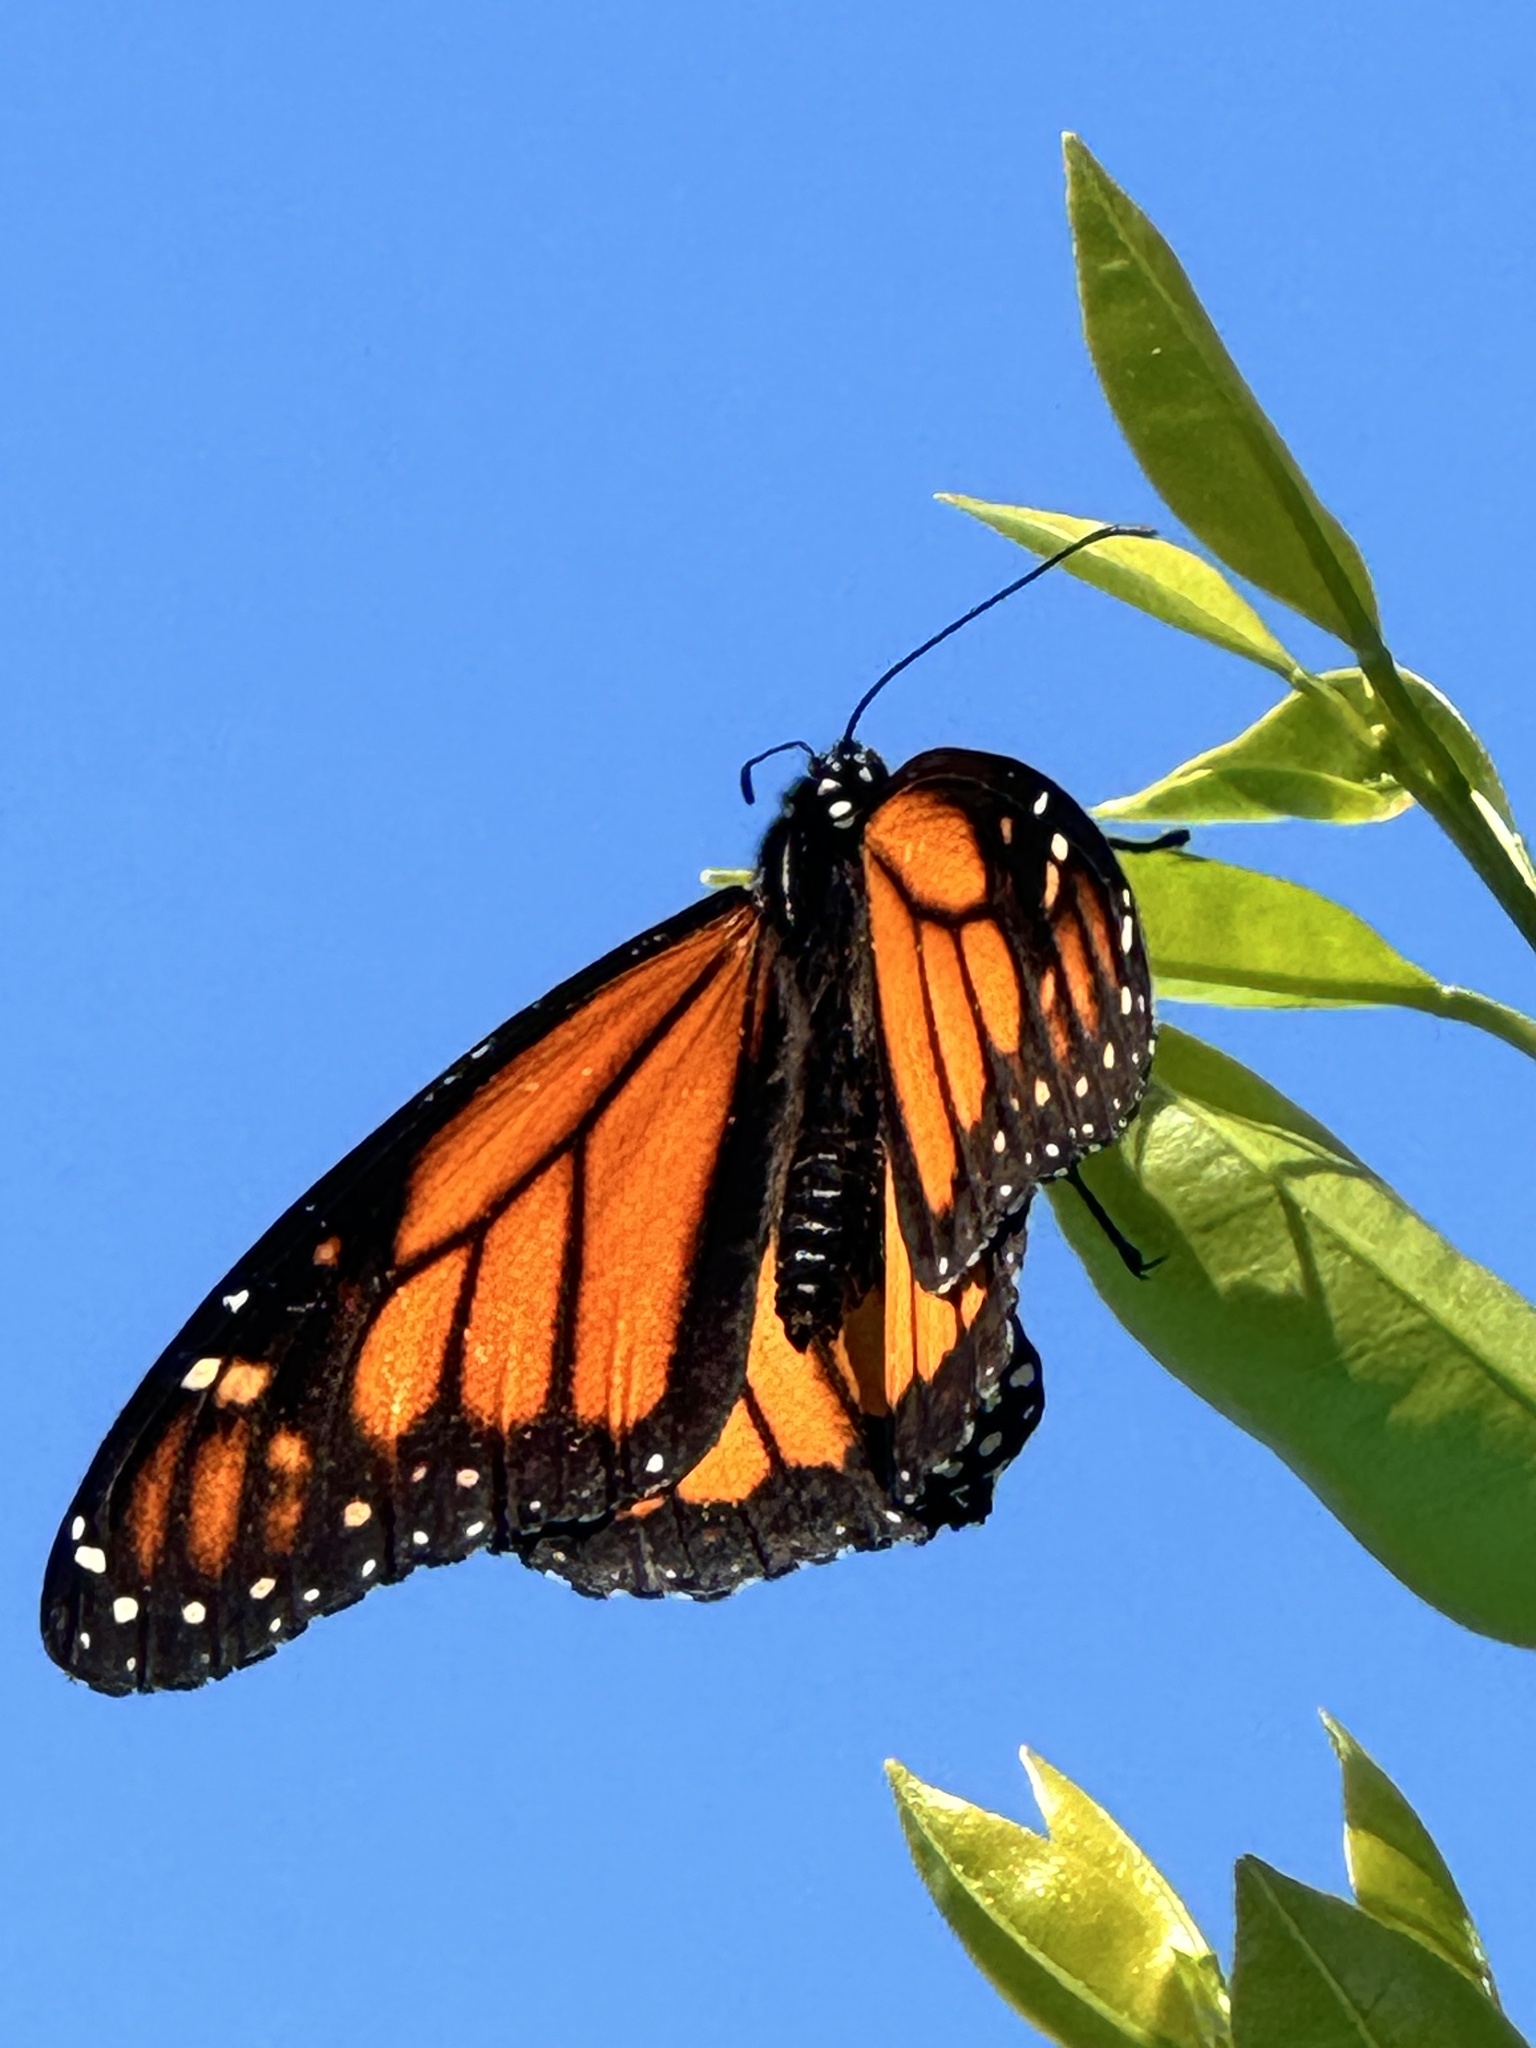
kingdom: Animalia
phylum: Arthropoda
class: Insecta
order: Lepidoptera
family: Nymphalidae
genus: Danaus
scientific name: Danaus plexippus
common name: Monarch
